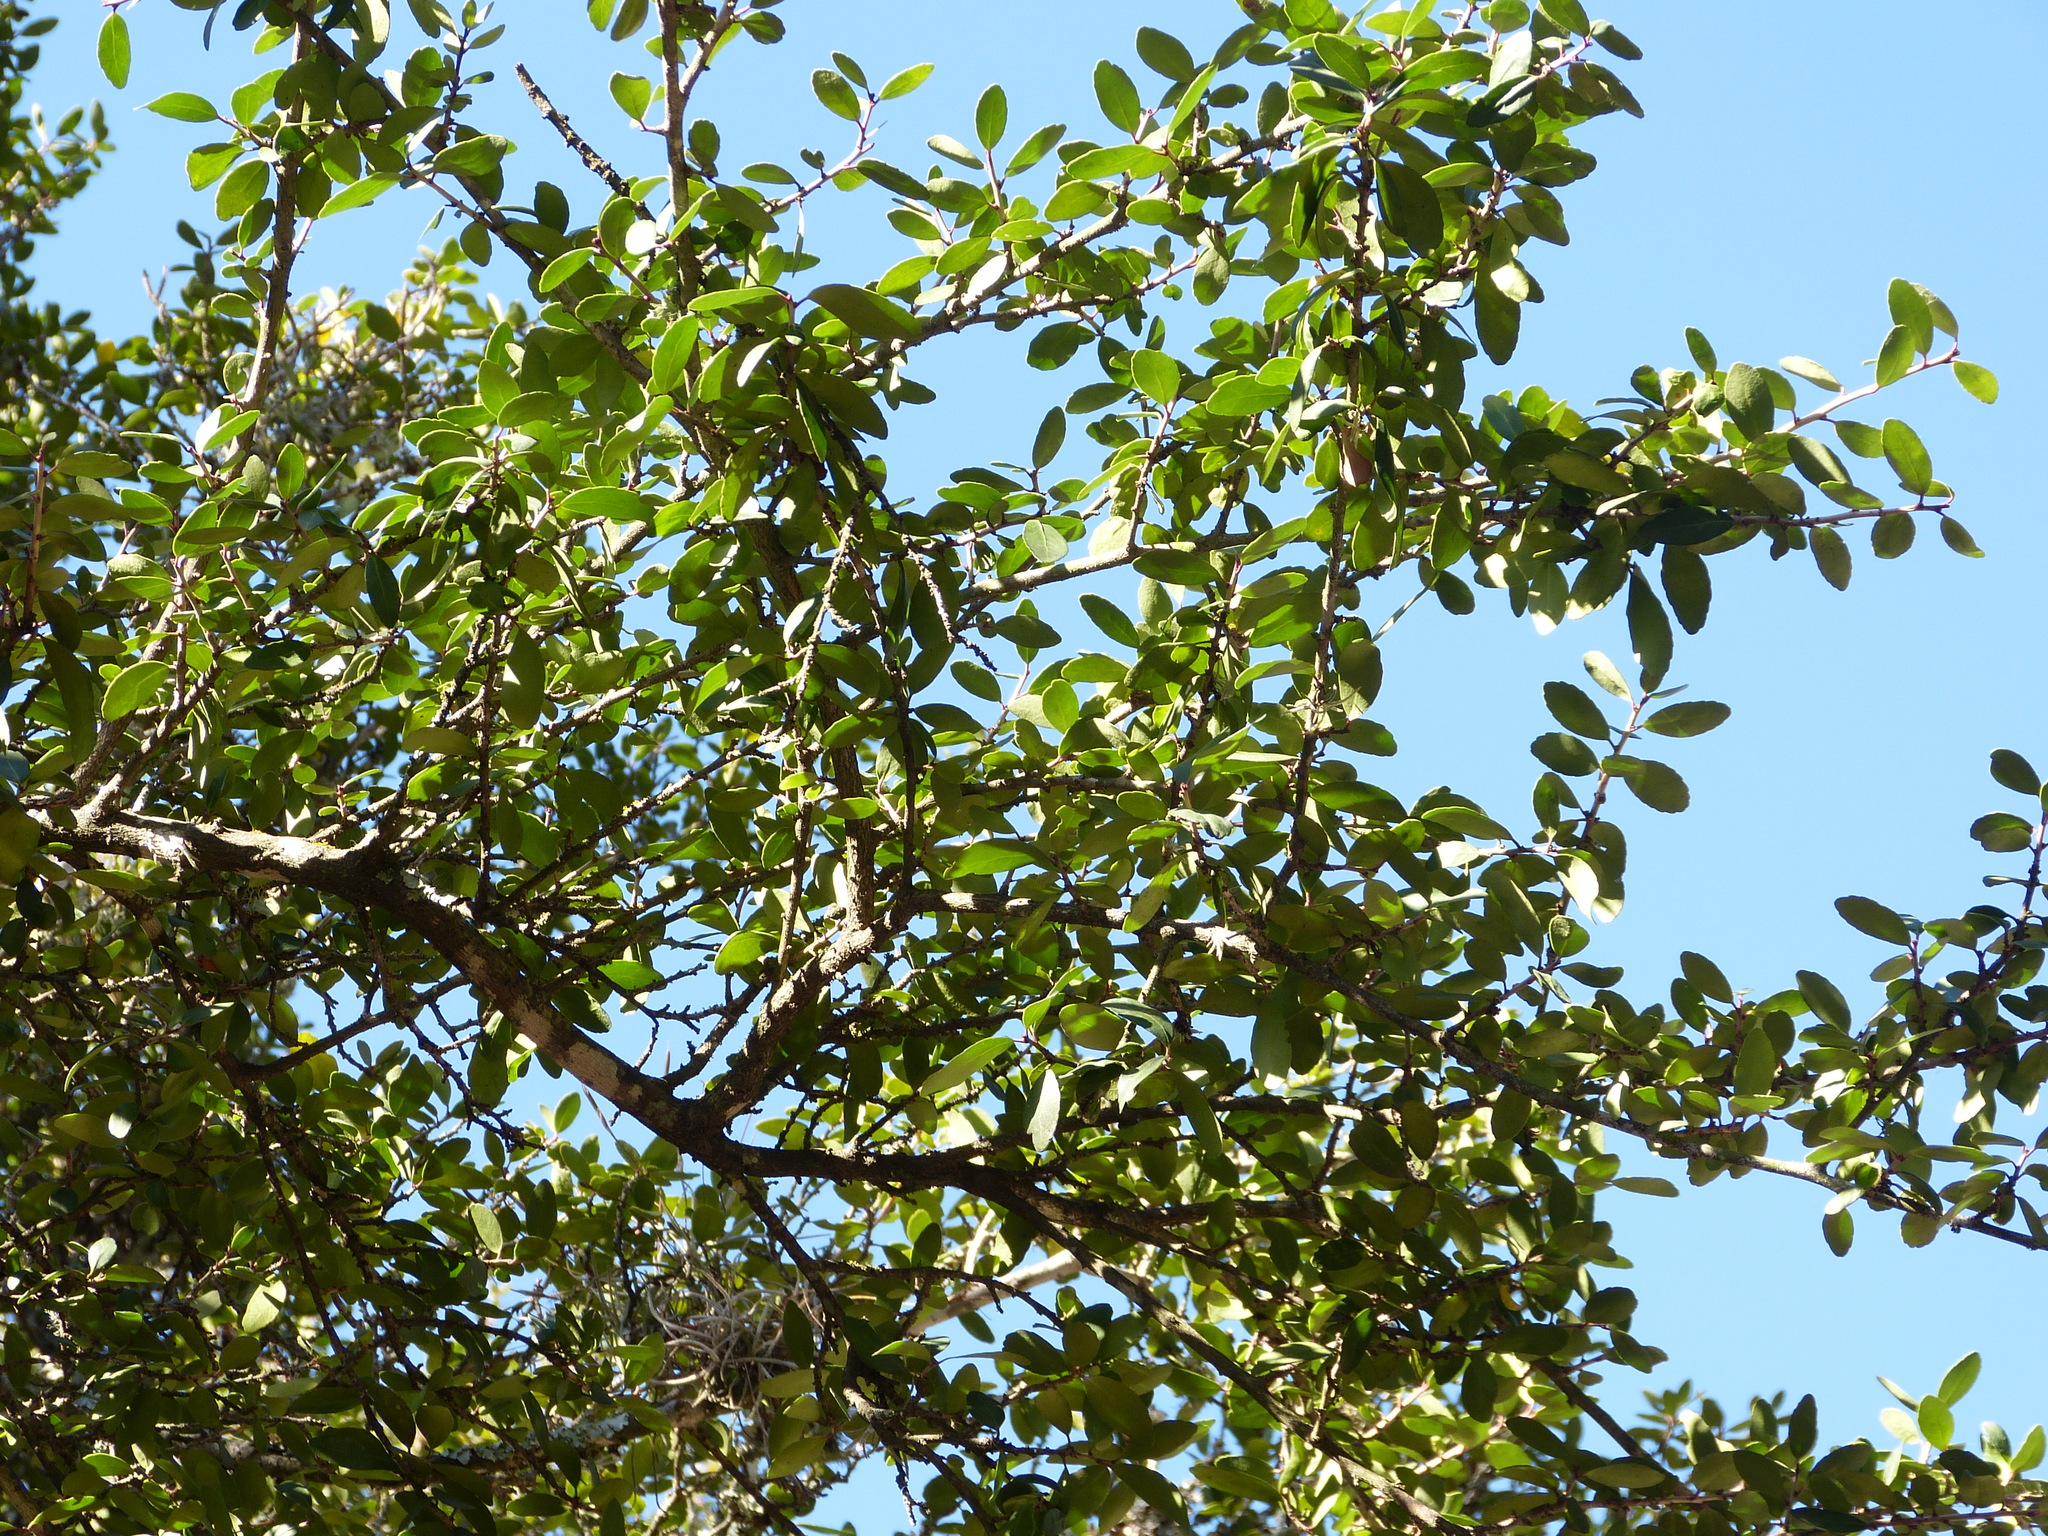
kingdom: Plantae
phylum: Tracheophyta
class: Magnoliopsida
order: Aquifoliales
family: Aquifoliaceae
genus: Ilex
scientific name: Ilex vomitoria
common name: Yaupon holly
